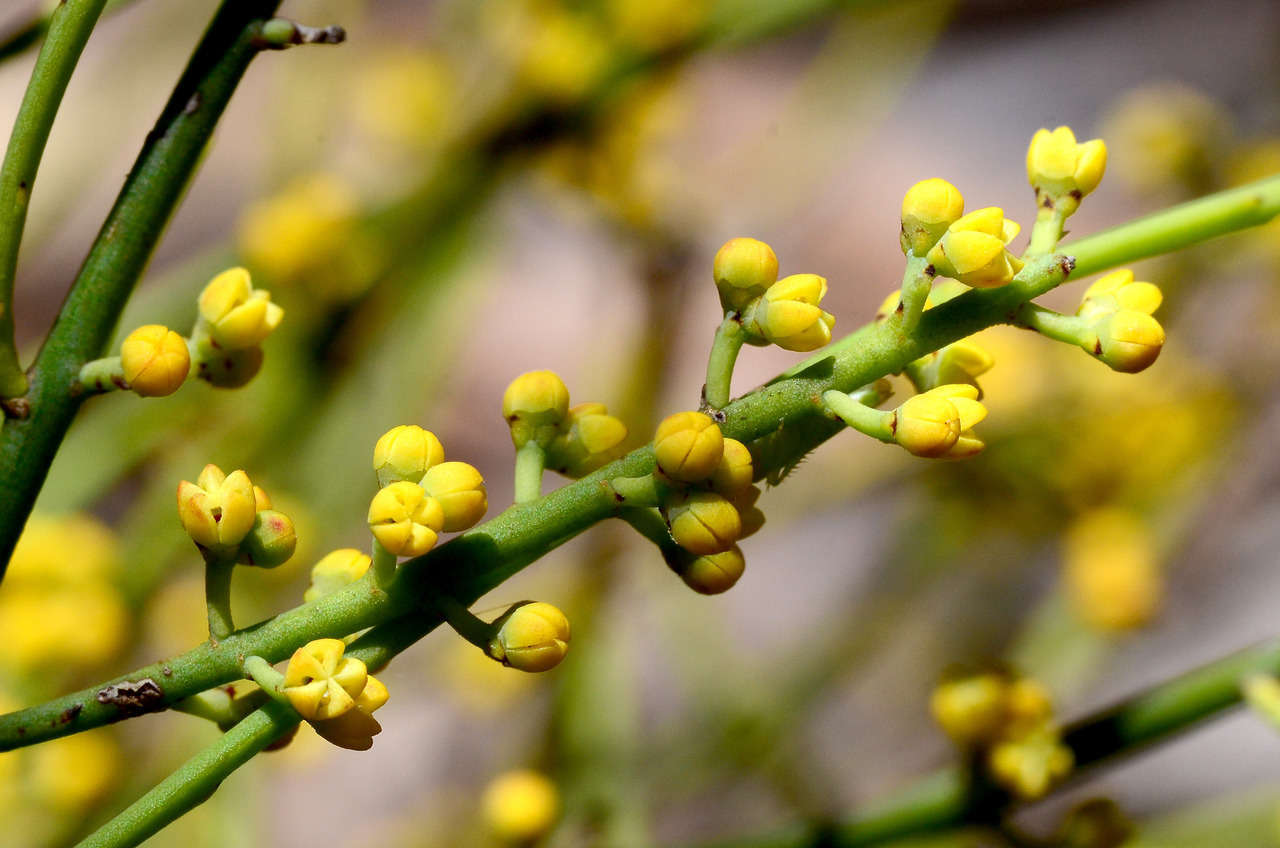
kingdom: Plantae
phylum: Tracheophyta
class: Magnoliopsida
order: Santalales
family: Amphorogynaceae
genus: Choretrum
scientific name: Choretrum glomeratum
